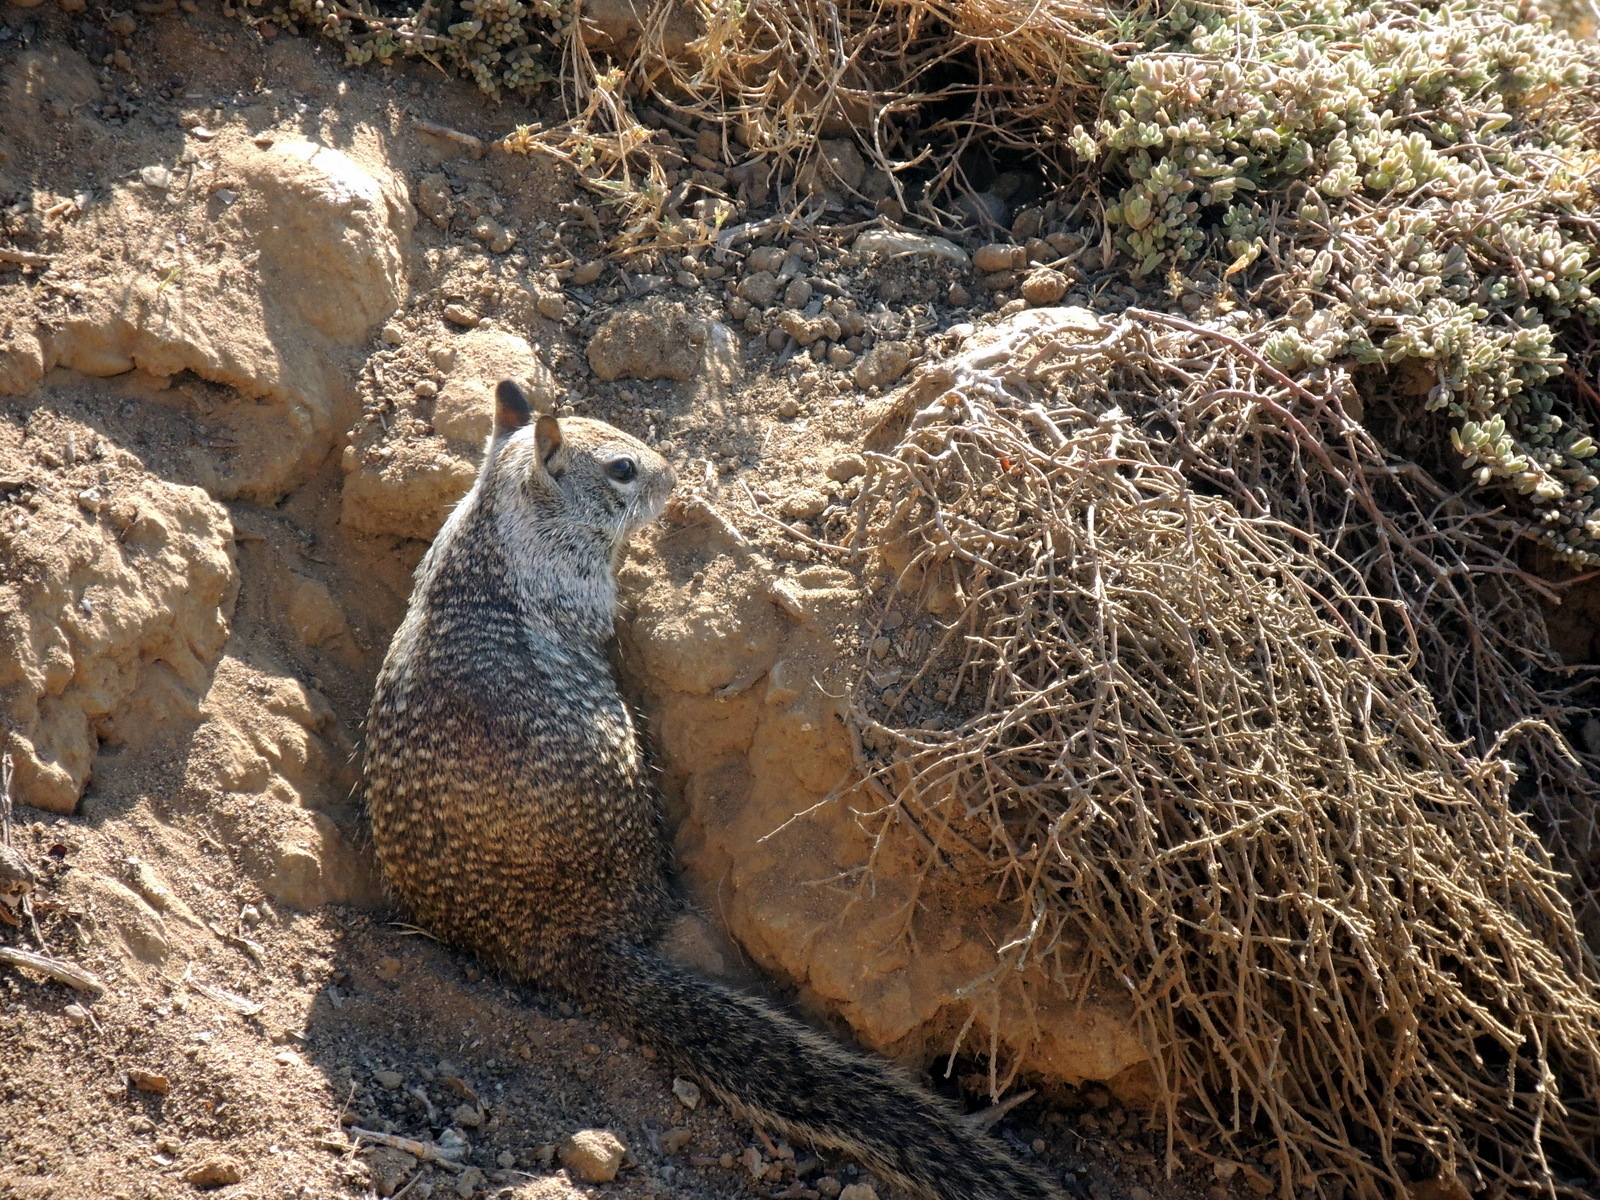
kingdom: Animalia
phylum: Chordata
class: Mammalia
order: Rodentia
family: Sciuridae
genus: Otospermophilus
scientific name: Otospermophilus beecheyi
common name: California ground squirrel
